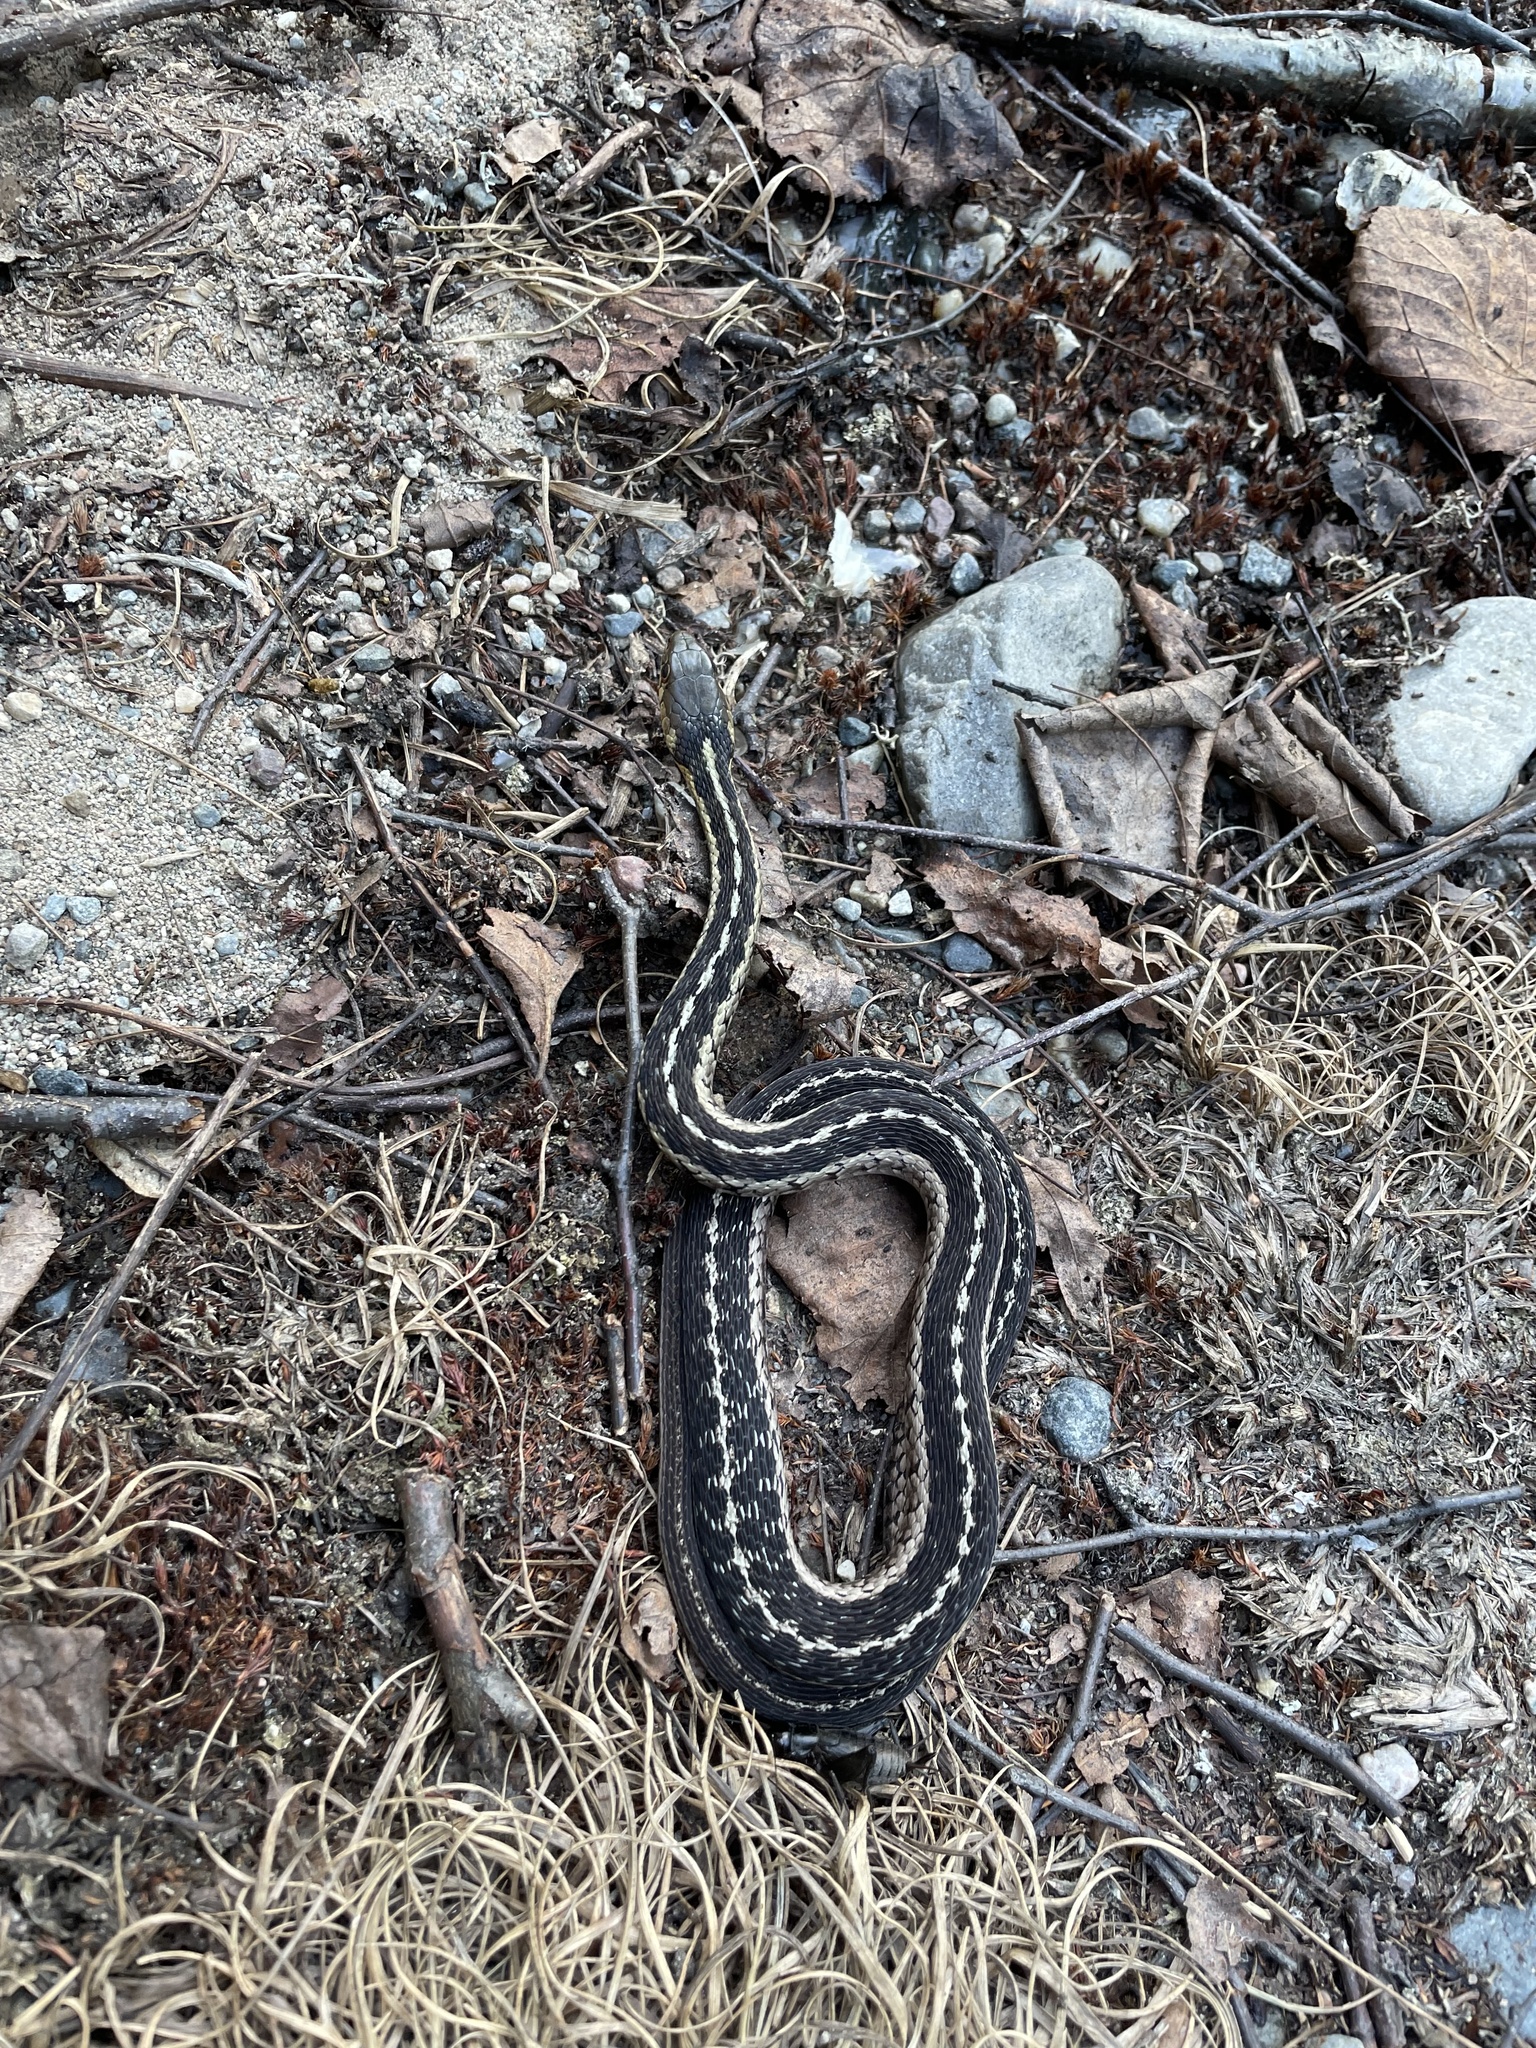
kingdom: Animalia
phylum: Chordata
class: Squamata
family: Colubridae
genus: Thamnophis
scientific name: Thamnophis sirtalis
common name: Common garter snake
